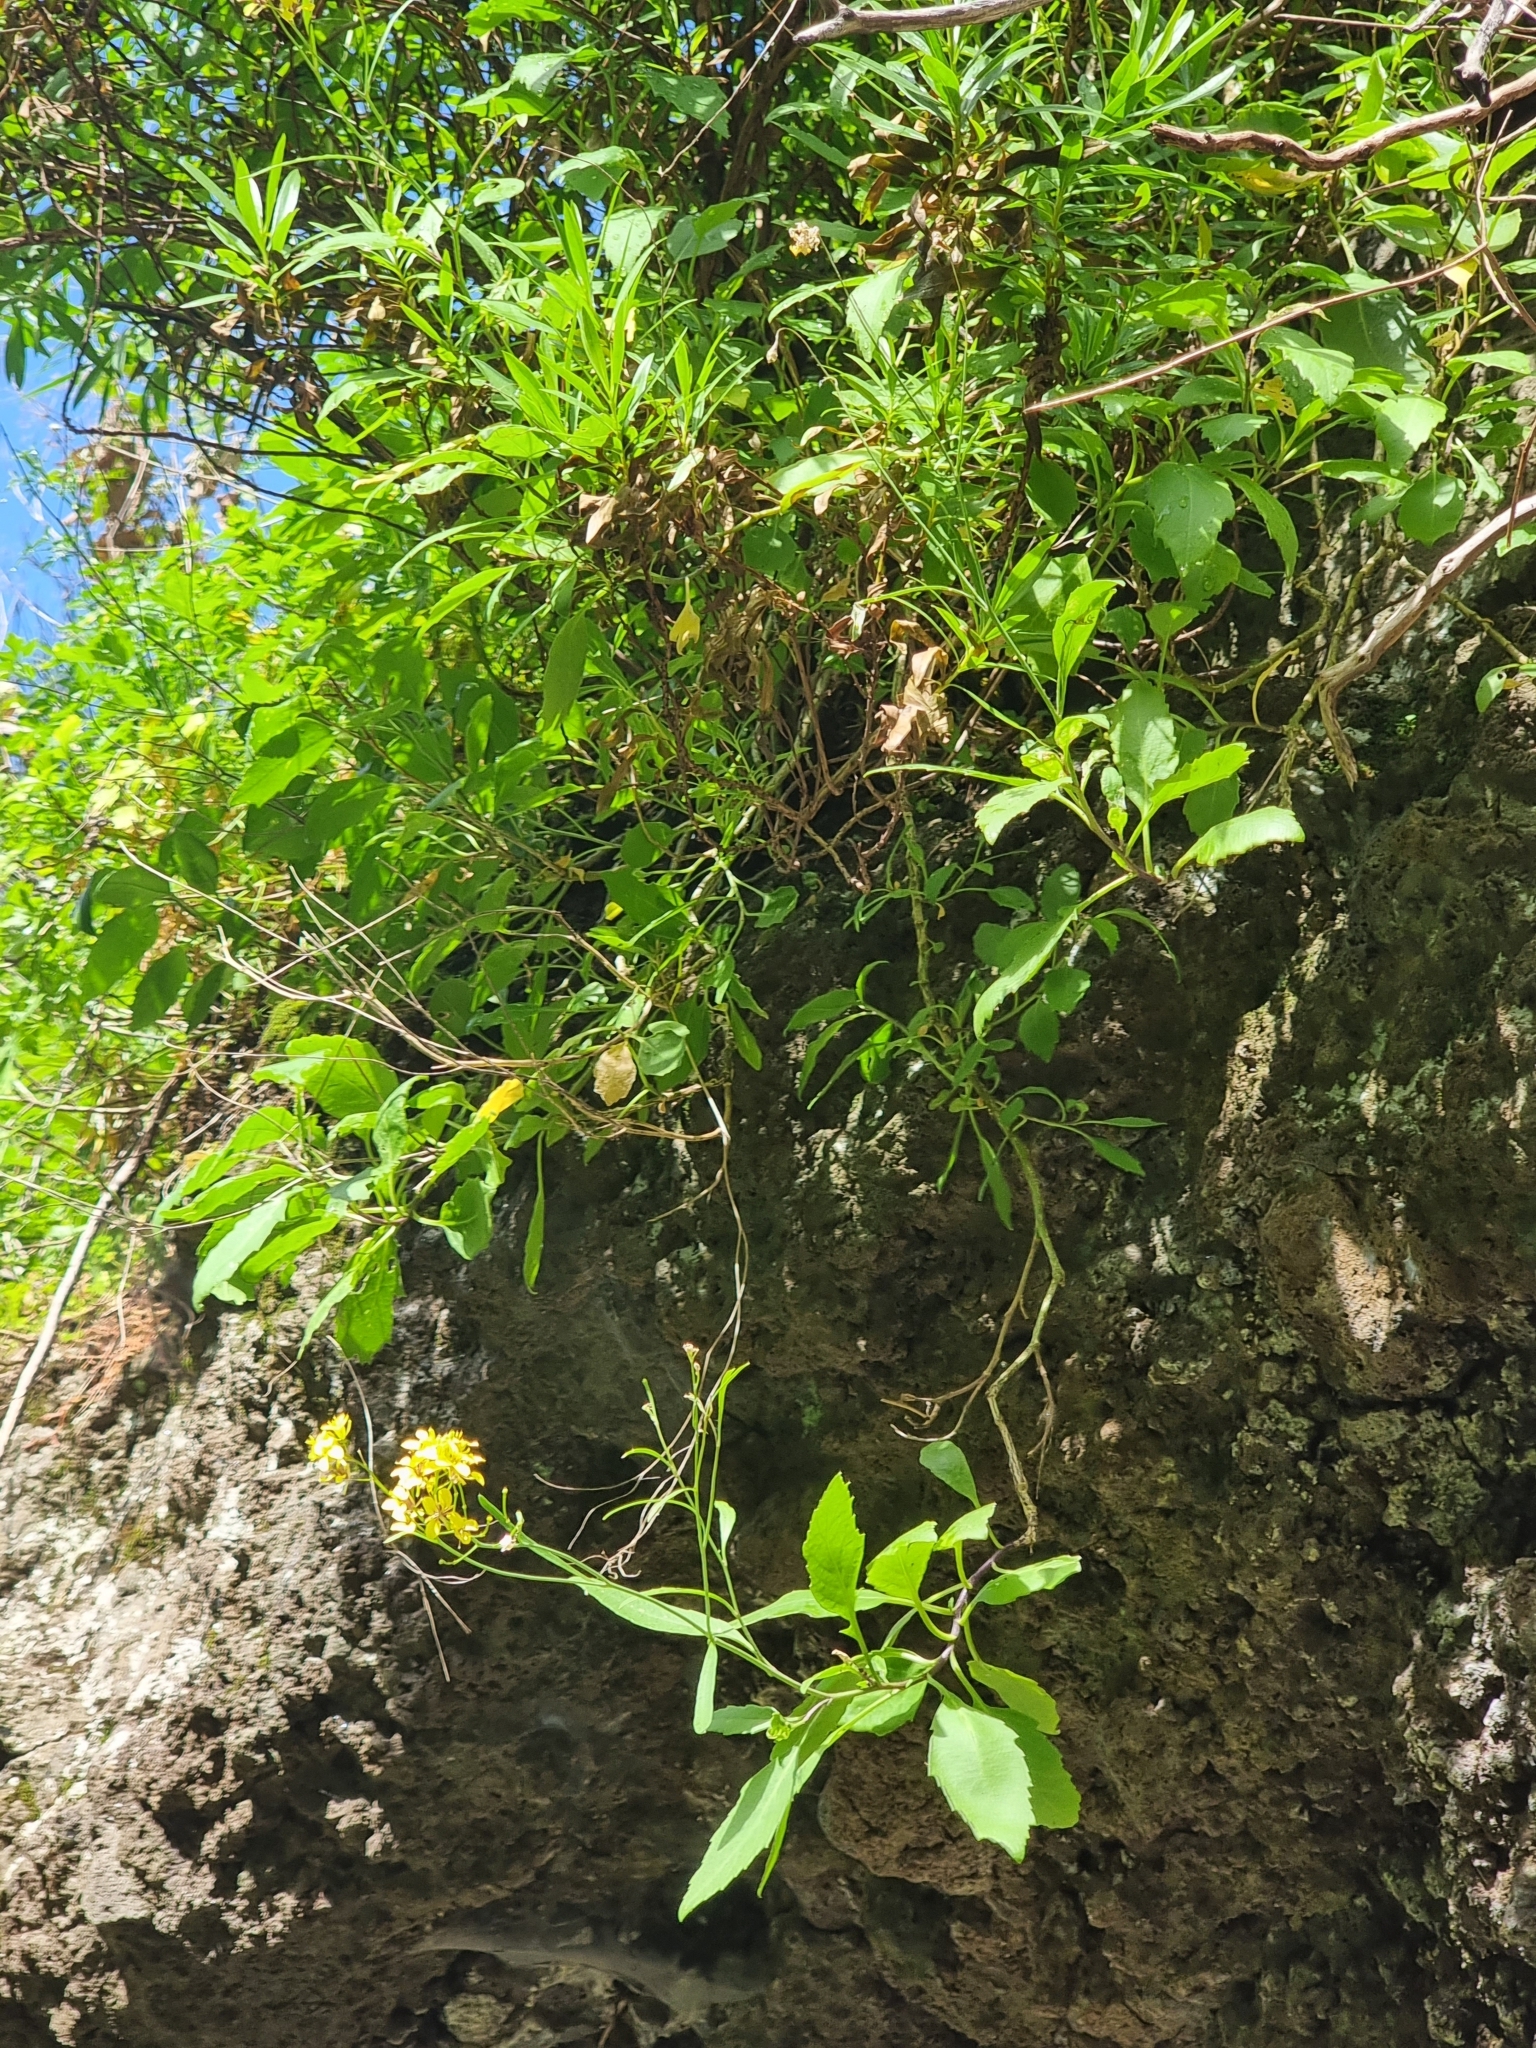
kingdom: Plantae
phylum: Tracheophyta
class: Magnoliopsida
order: Brassicales
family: Brassicaceae
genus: Sinapidendron
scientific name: Sinapidendron frutescens
